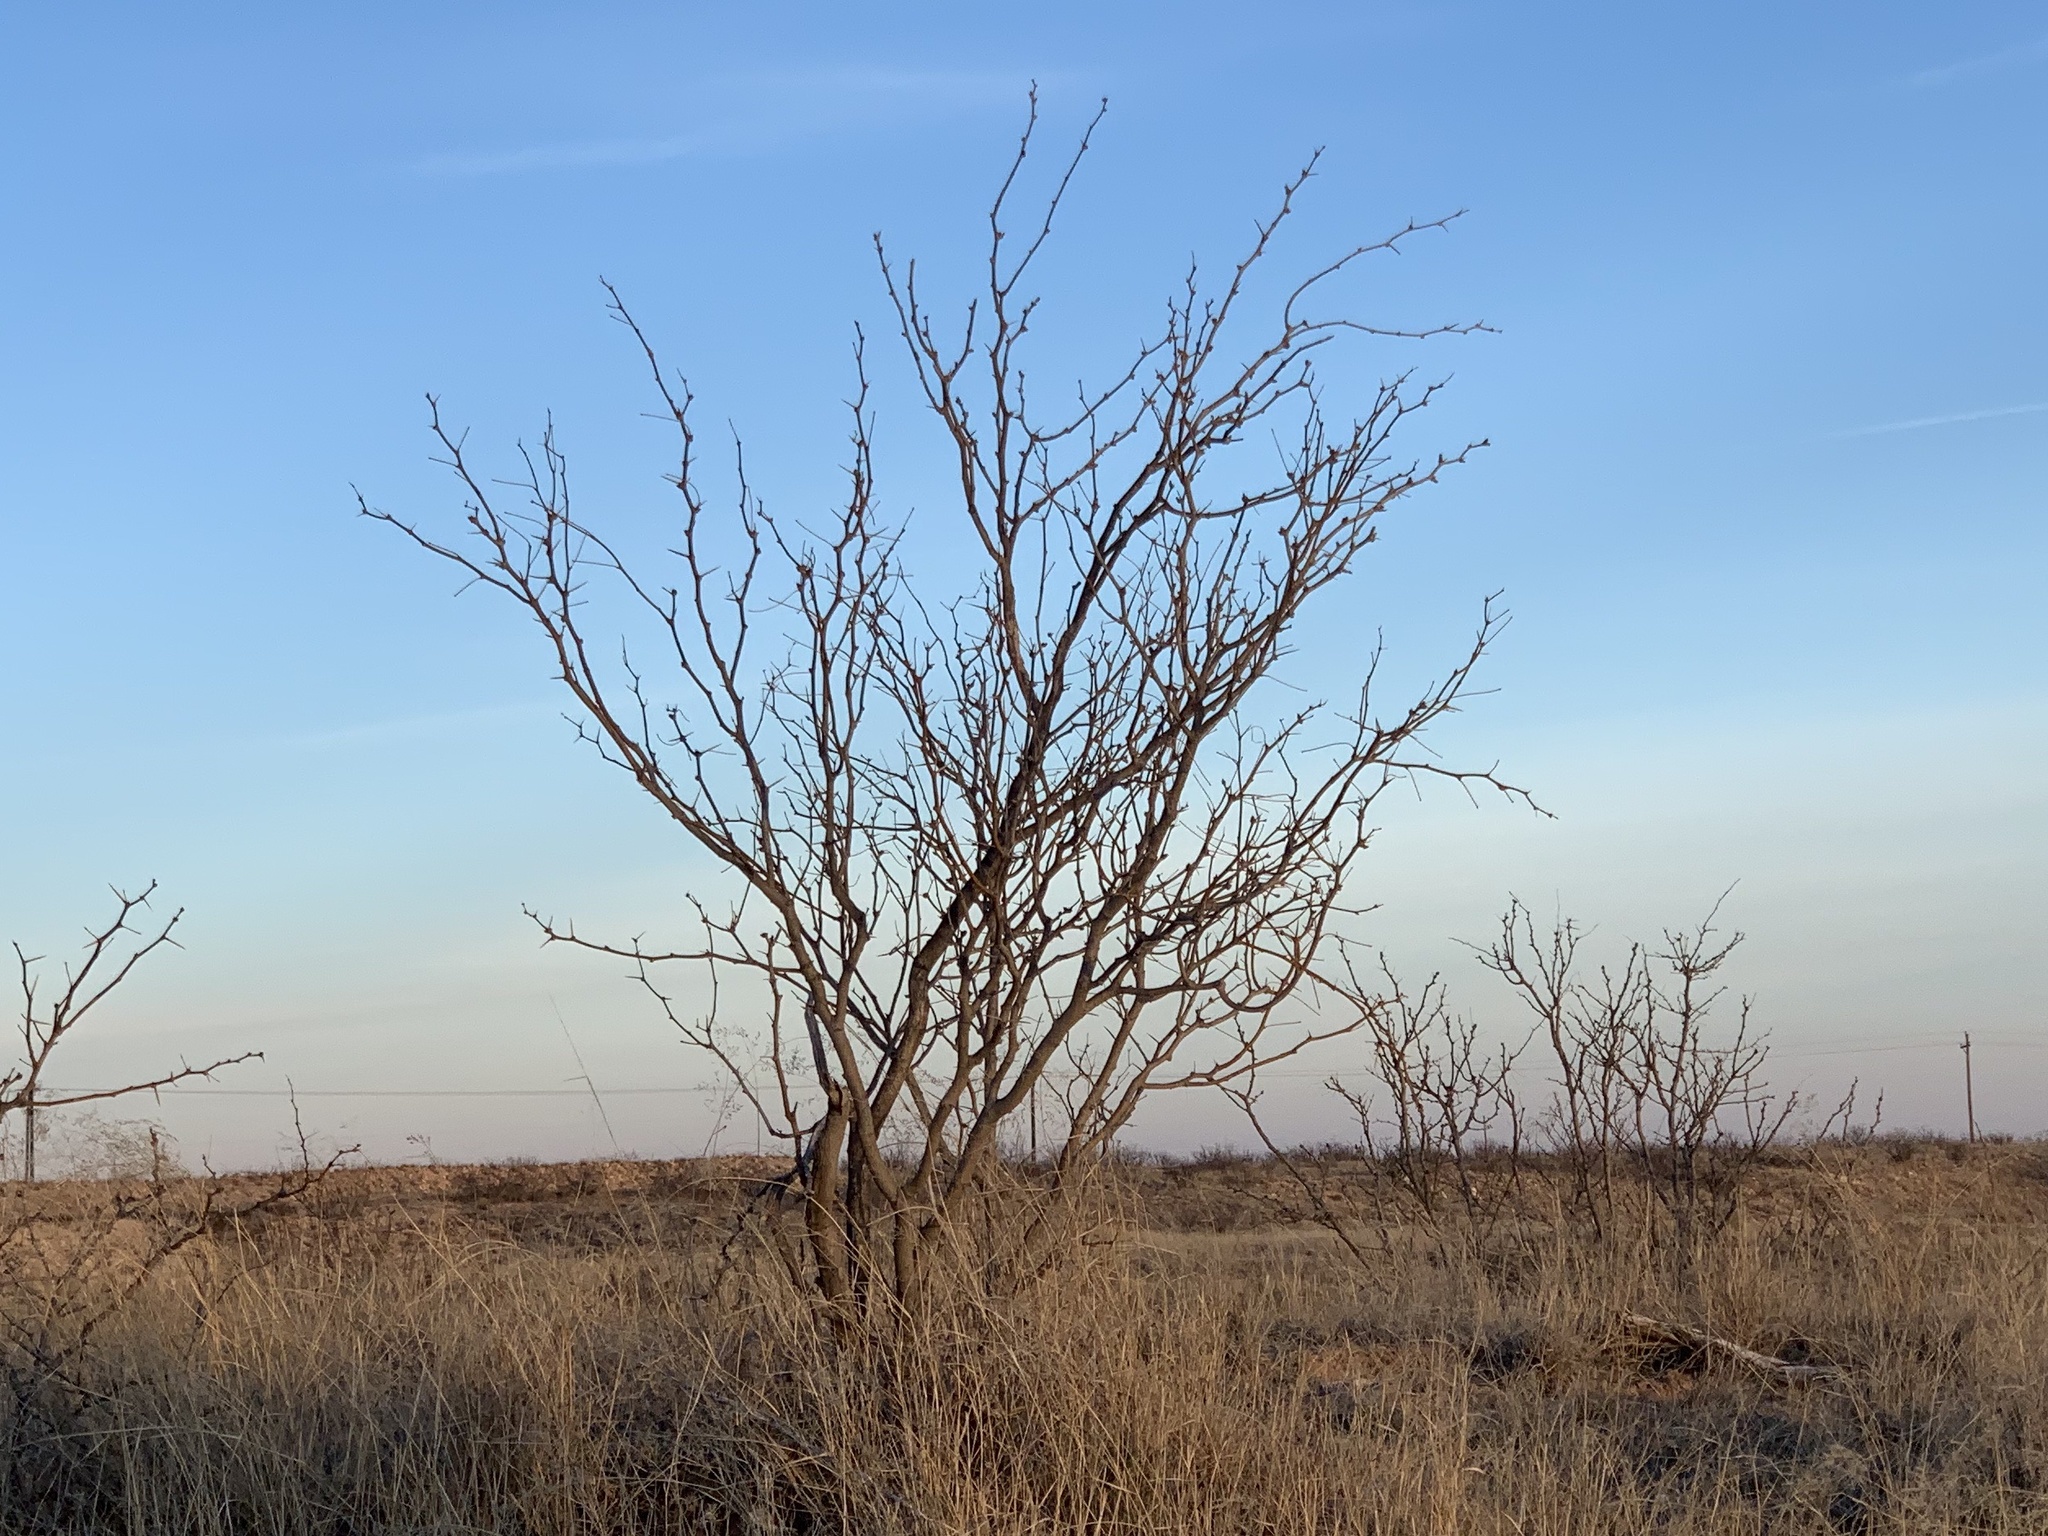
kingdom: Plantae
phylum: Tracheophyta
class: Magnoliopsida
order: Fabales
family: Fabaceae
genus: Prosopis
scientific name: Prosopis glandulosa
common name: Honey mesquite
